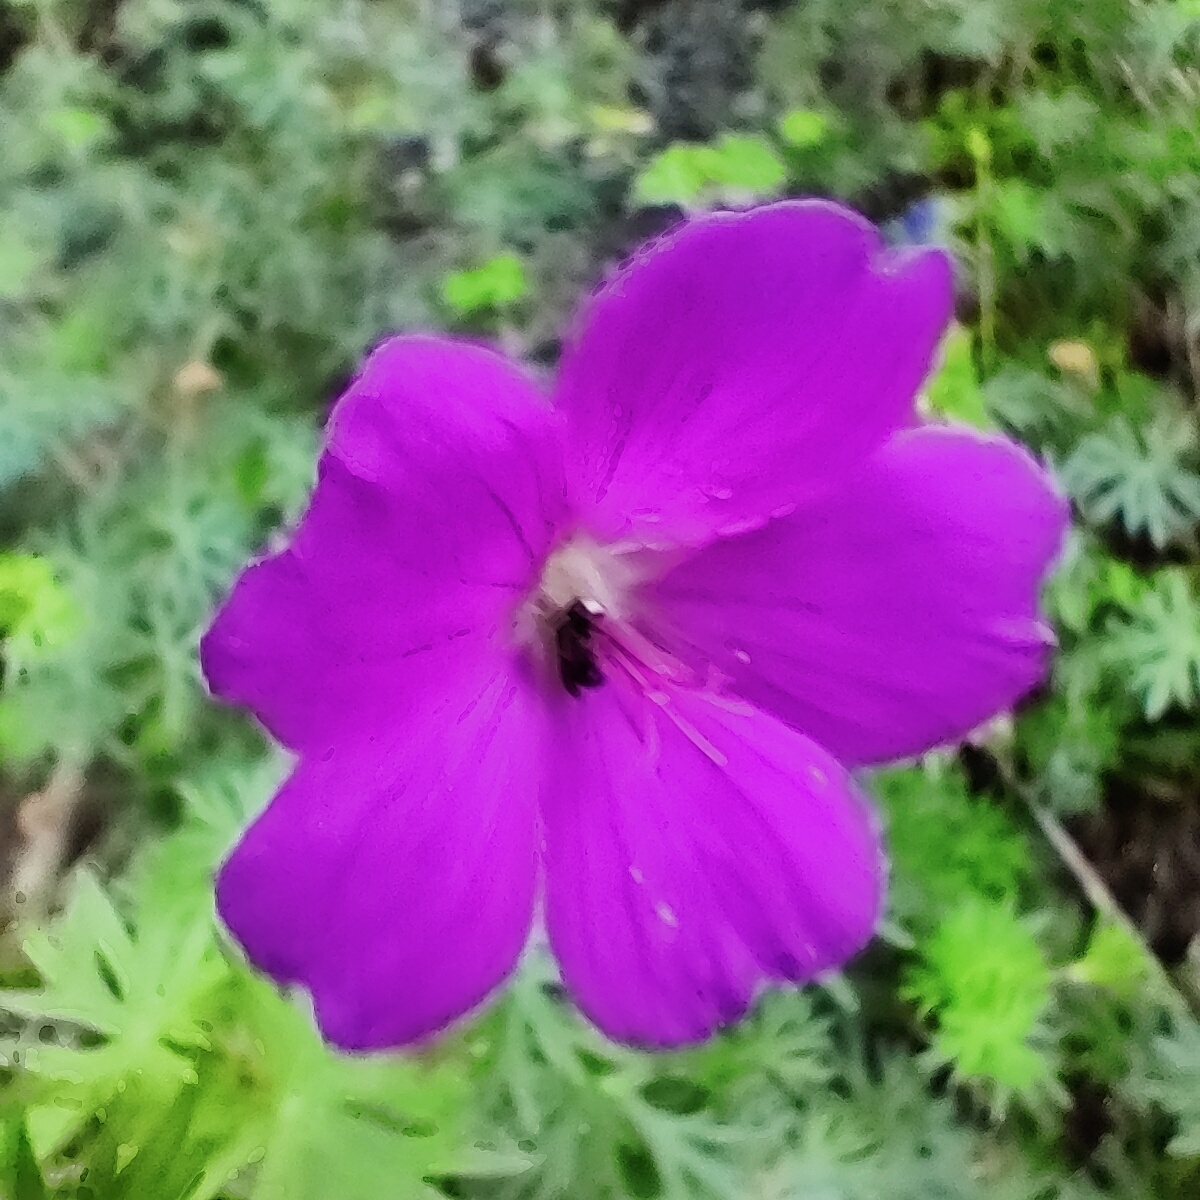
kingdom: Plantae
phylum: Tracheophyta
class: Magnoliopsida
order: Geraniales
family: Geraniaceae
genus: Geranium
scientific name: Geranium sanguineum
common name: Bloody crane's-bill
